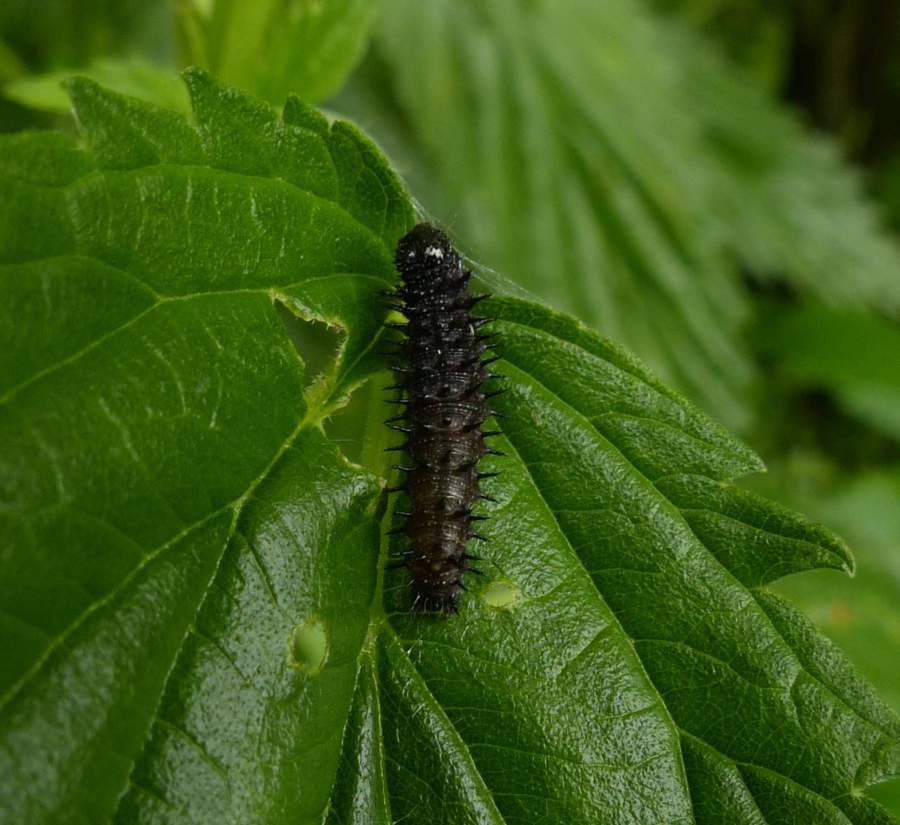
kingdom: Animalia
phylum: Arthropoda
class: Insecta
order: Lepidoptera
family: Nymphalidae
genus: Vanessa
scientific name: Vanessa atalanta
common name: Red admiral
